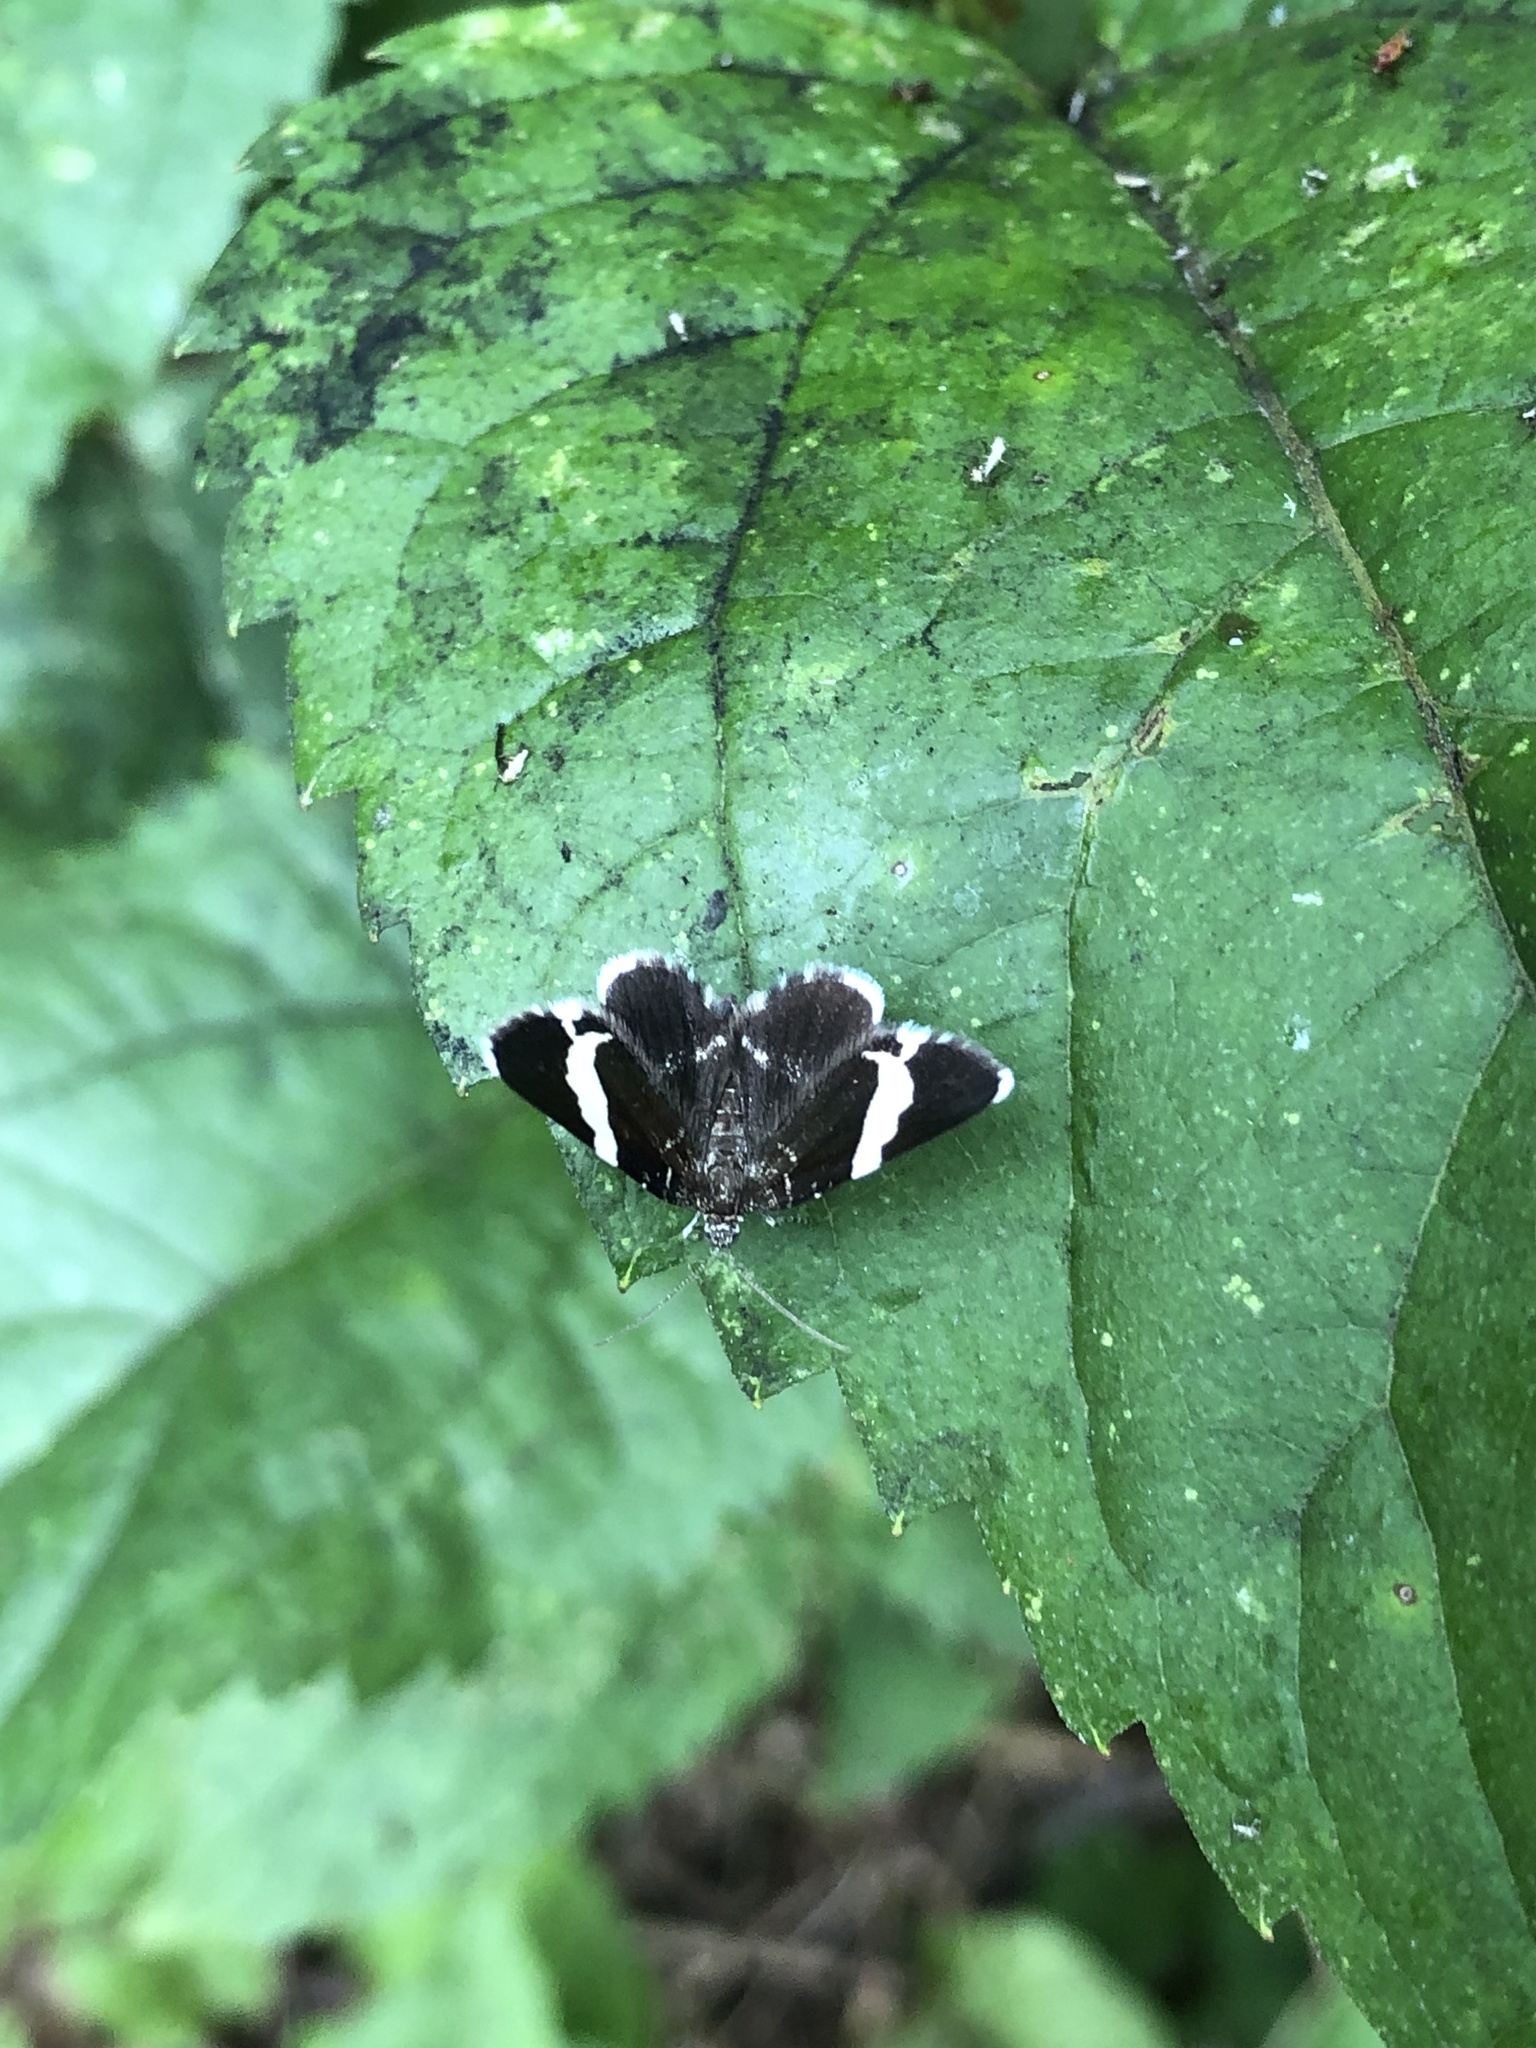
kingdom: Animalia
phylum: Arthropoda
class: Insecta
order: Lepidoptera
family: Geometridae
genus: Trichodezia
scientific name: Trichodezia albovittata
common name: White striped black
